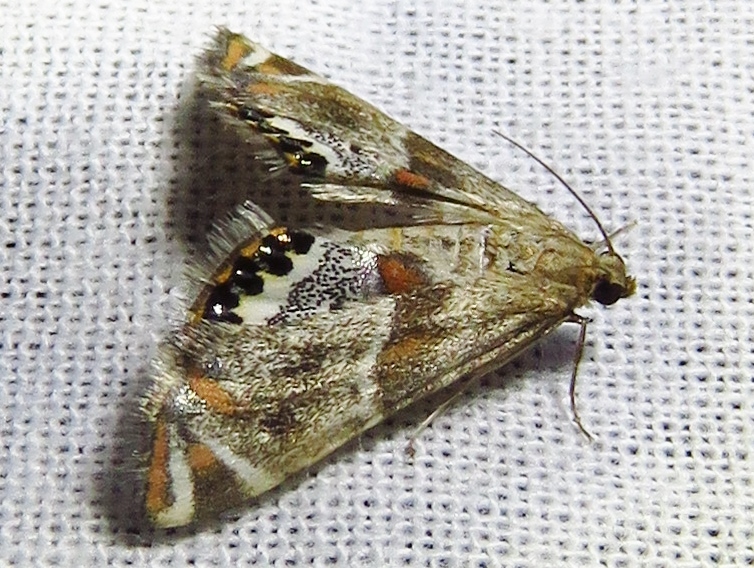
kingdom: Animalia
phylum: Arthropoda
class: Insecta
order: Lepidoptera
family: Crambidae
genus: Petrophila
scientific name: Petrophila jaliscalis
